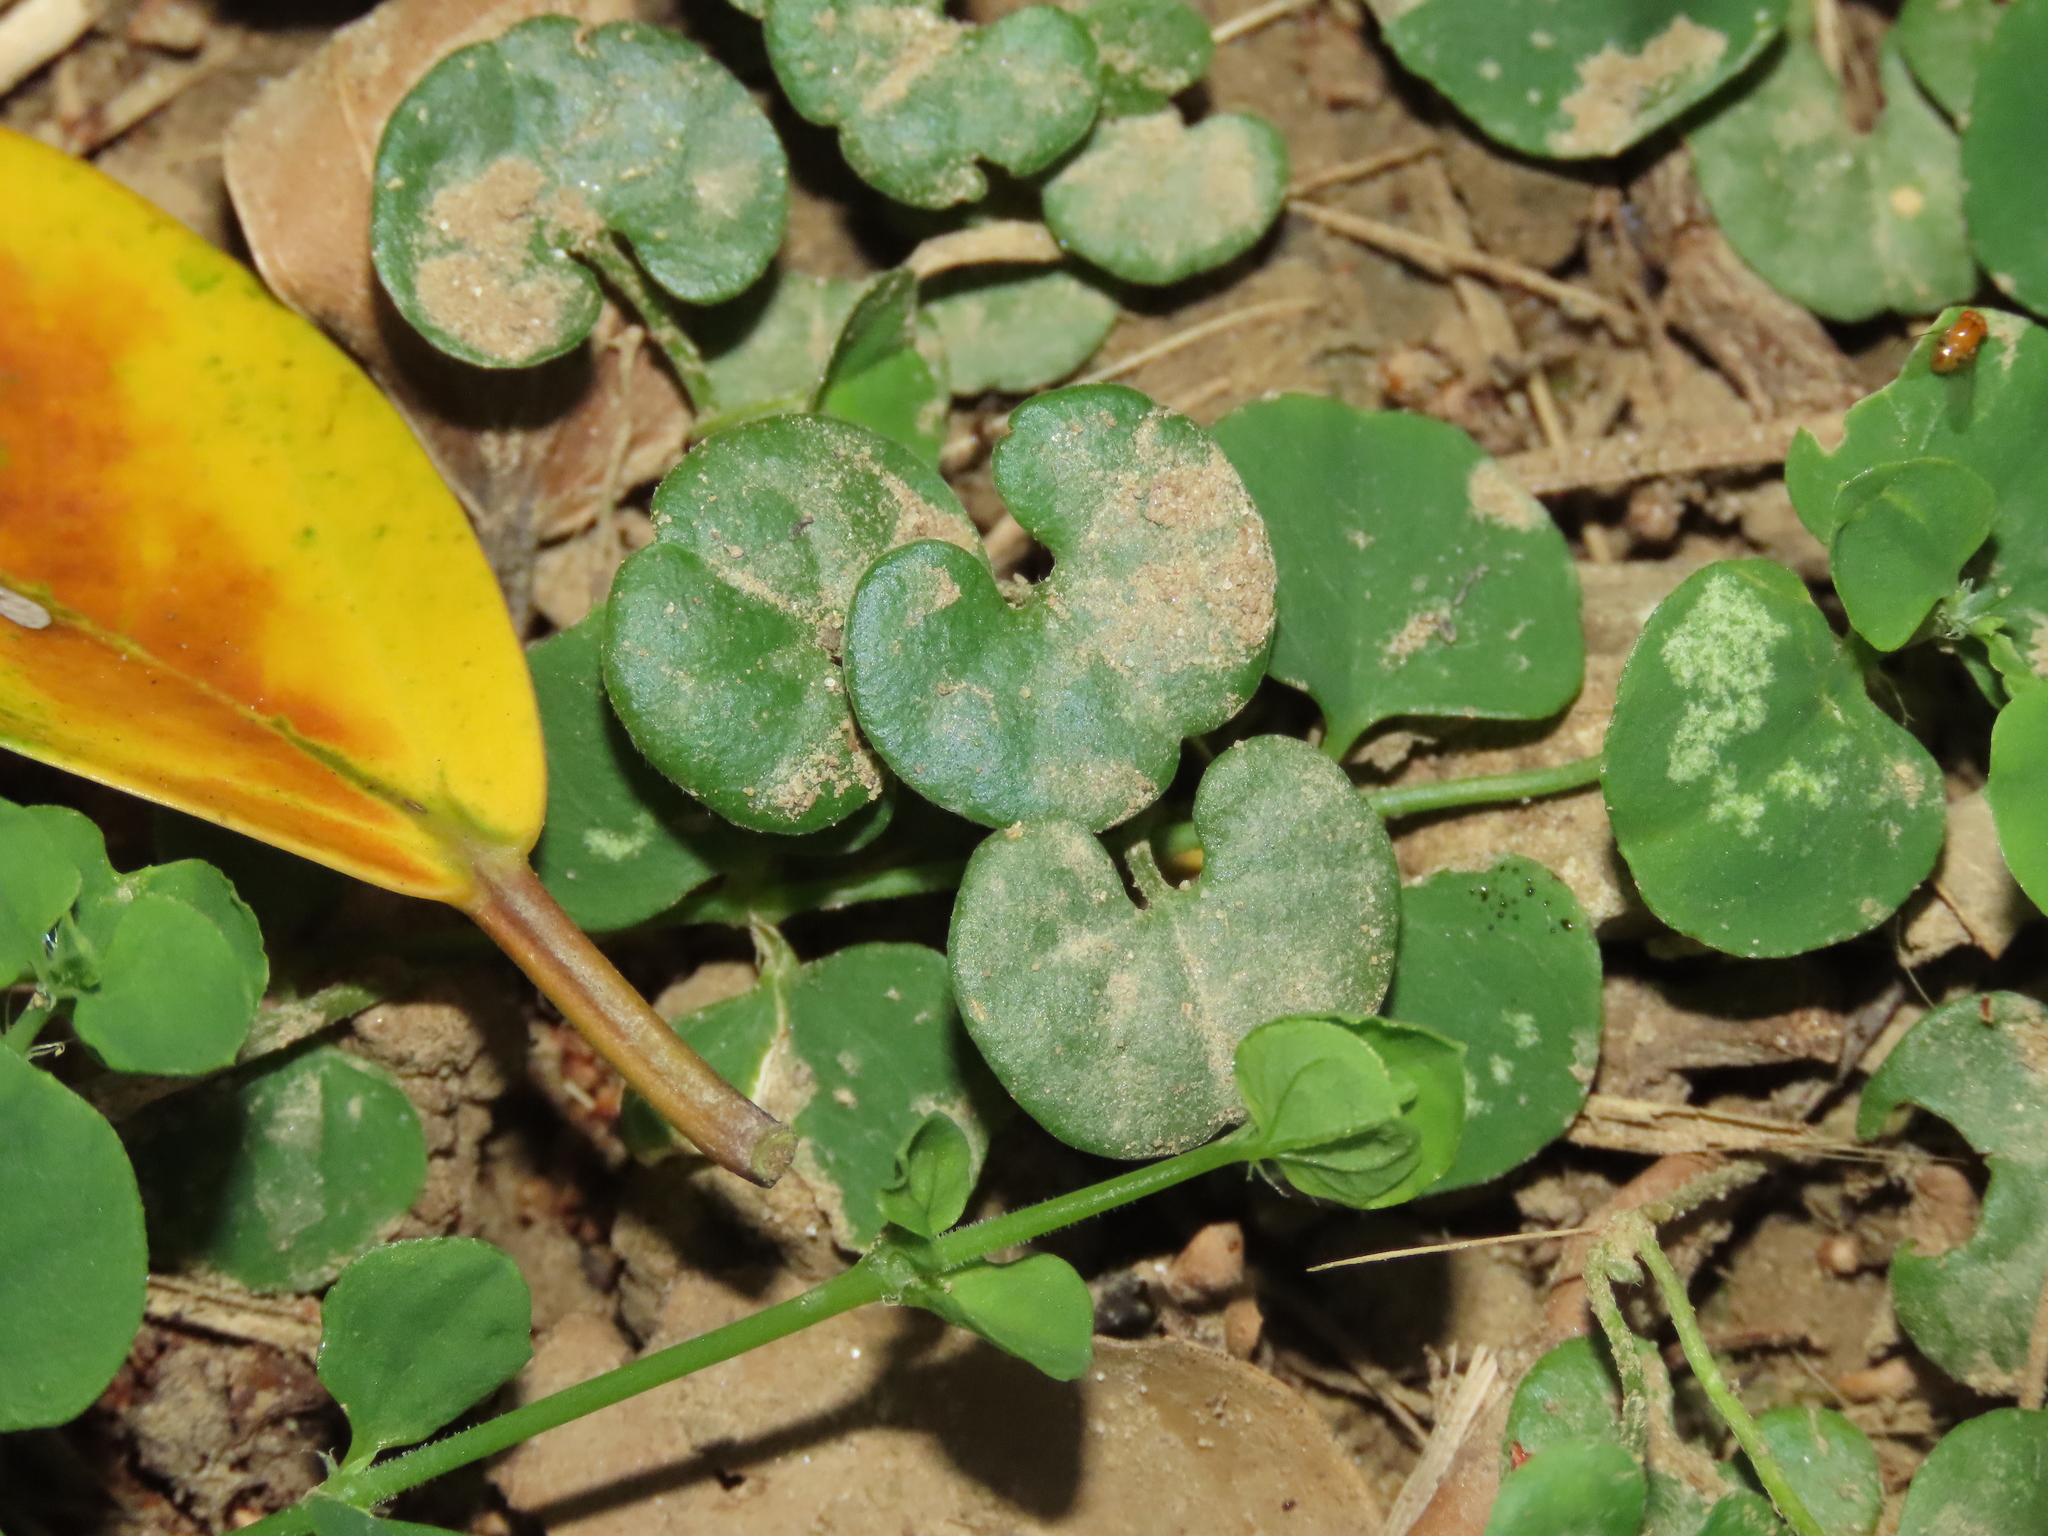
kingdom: Plantae
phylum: Tracheophyta
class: Magnoliopsida
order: Solanales
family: Convolvulaceae
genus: Dichondra
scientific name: Dichondra micrantha
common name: Kidneyweed
